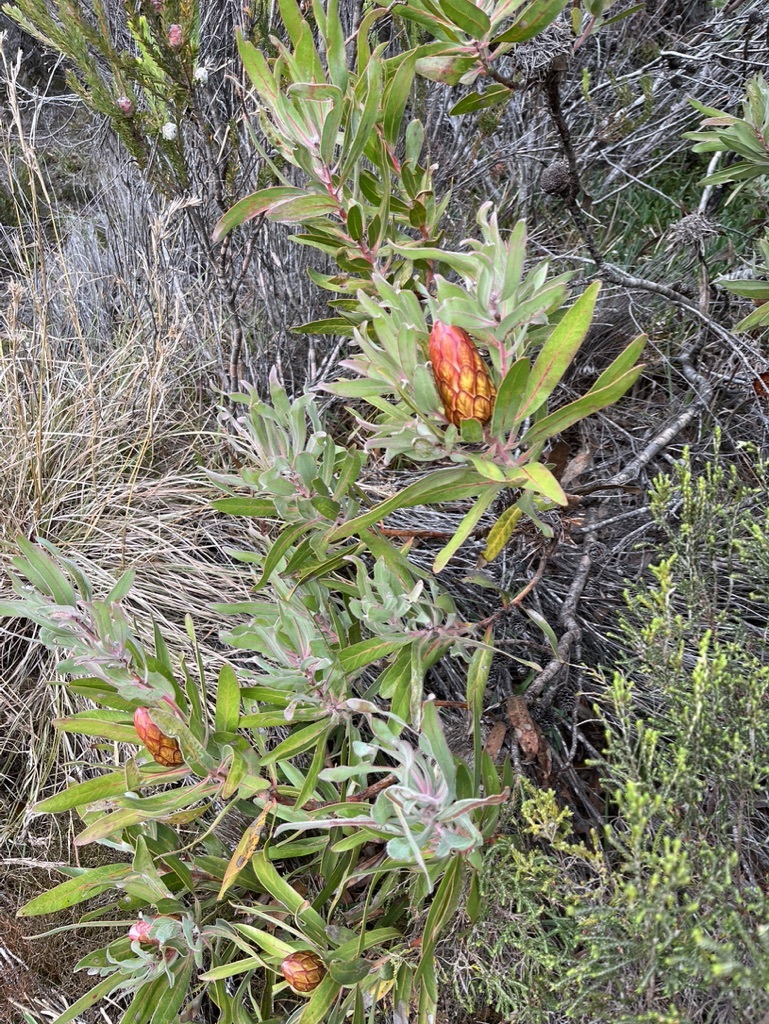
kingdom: Plantae
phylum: Tracheophyta
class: Magnoliopsida
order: Proteales
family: Proteaceae
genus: Protea
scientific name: Protea susannae
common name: Foetid-leaf sugarbush
